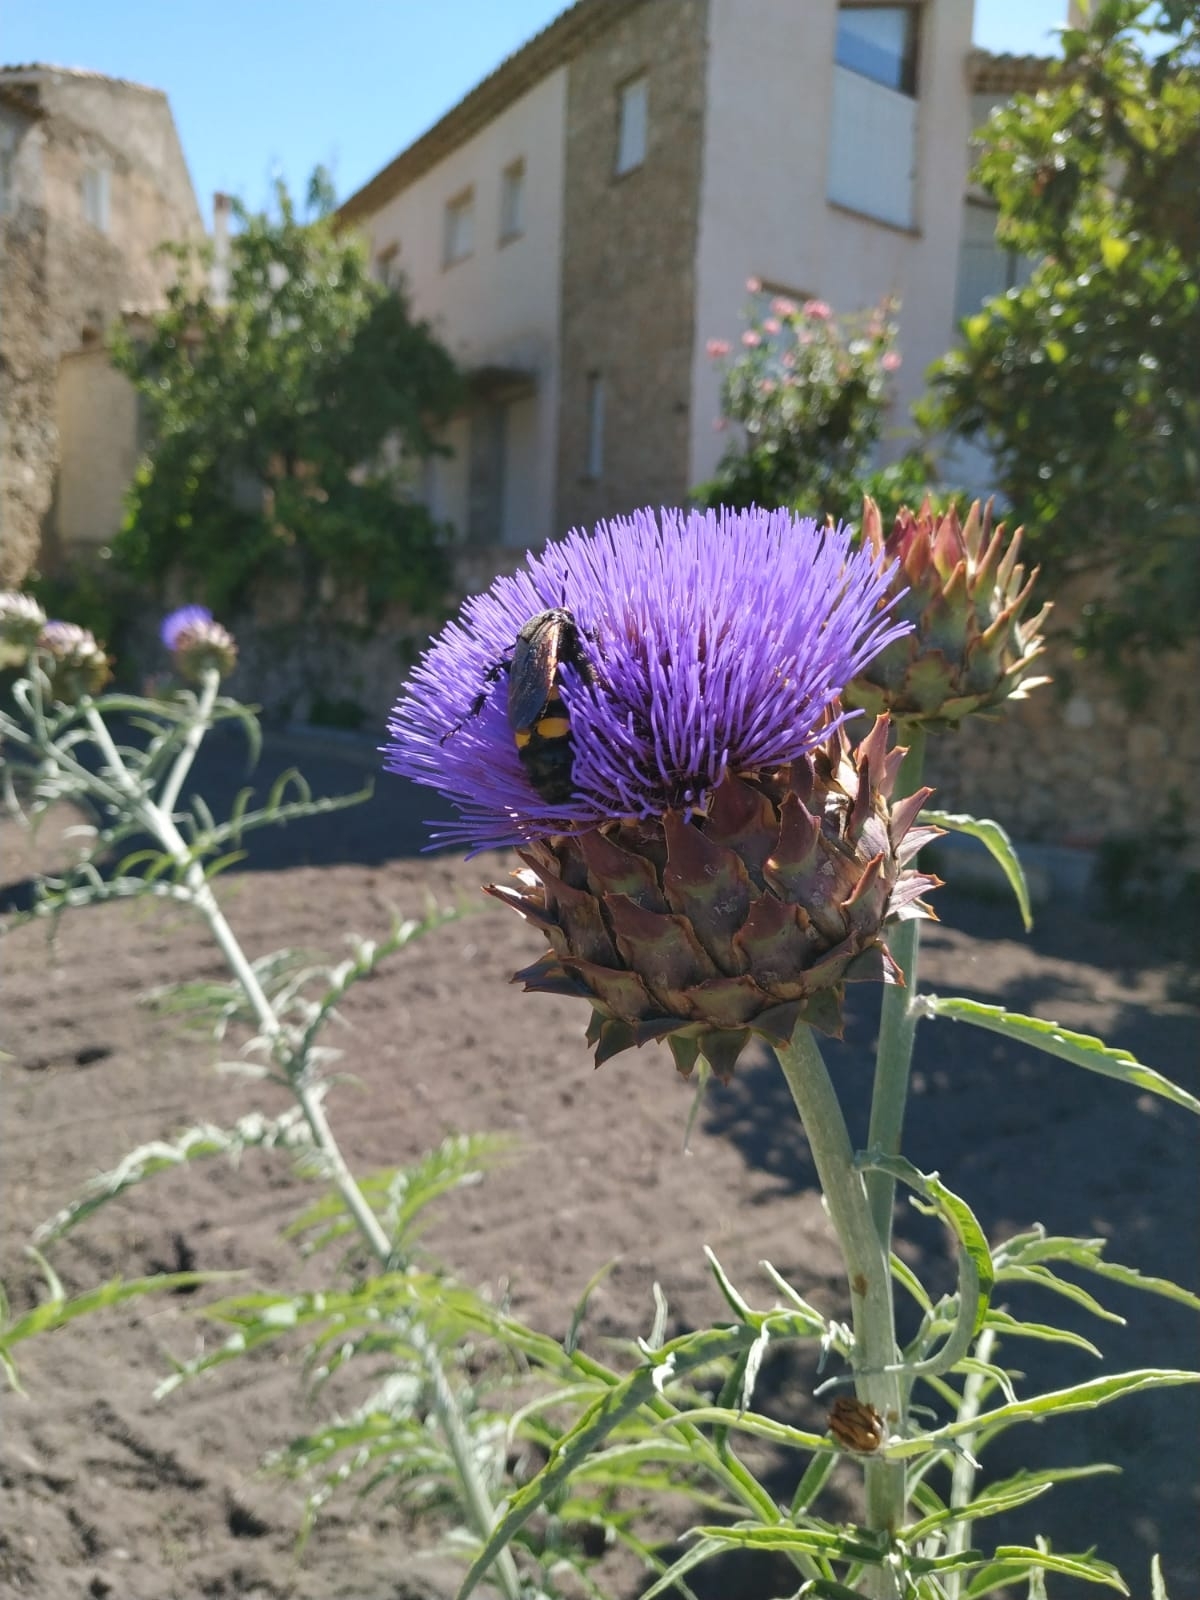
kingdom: Animalia
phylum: Arthropoda
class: Insecta
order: Hymenoptera
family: Scoliidae
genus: Megascolia
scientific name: Megascolia maculata
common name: Mammoth wasp
